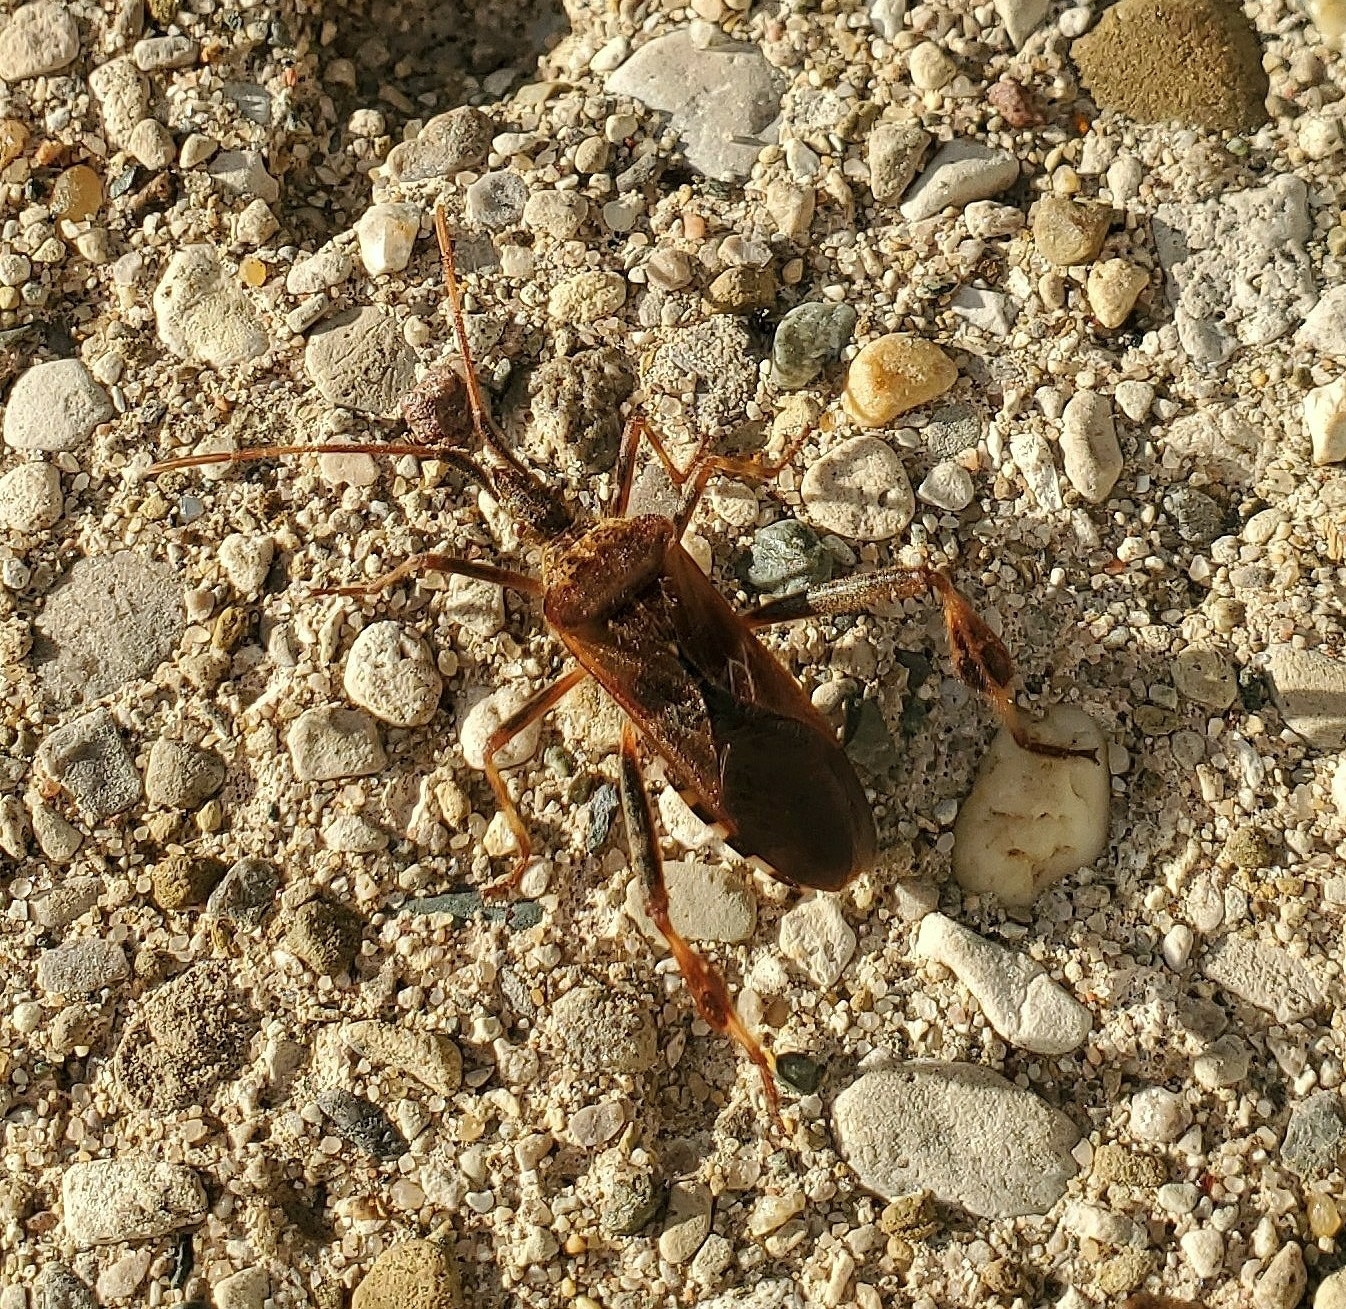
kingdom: Animalia
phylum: Arthropoda
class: Insecta
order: Hemiptera
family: Coreidae
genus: Leptoglossus
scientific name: Leptoglossus occidentalis
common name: Western conifer-seed bug
